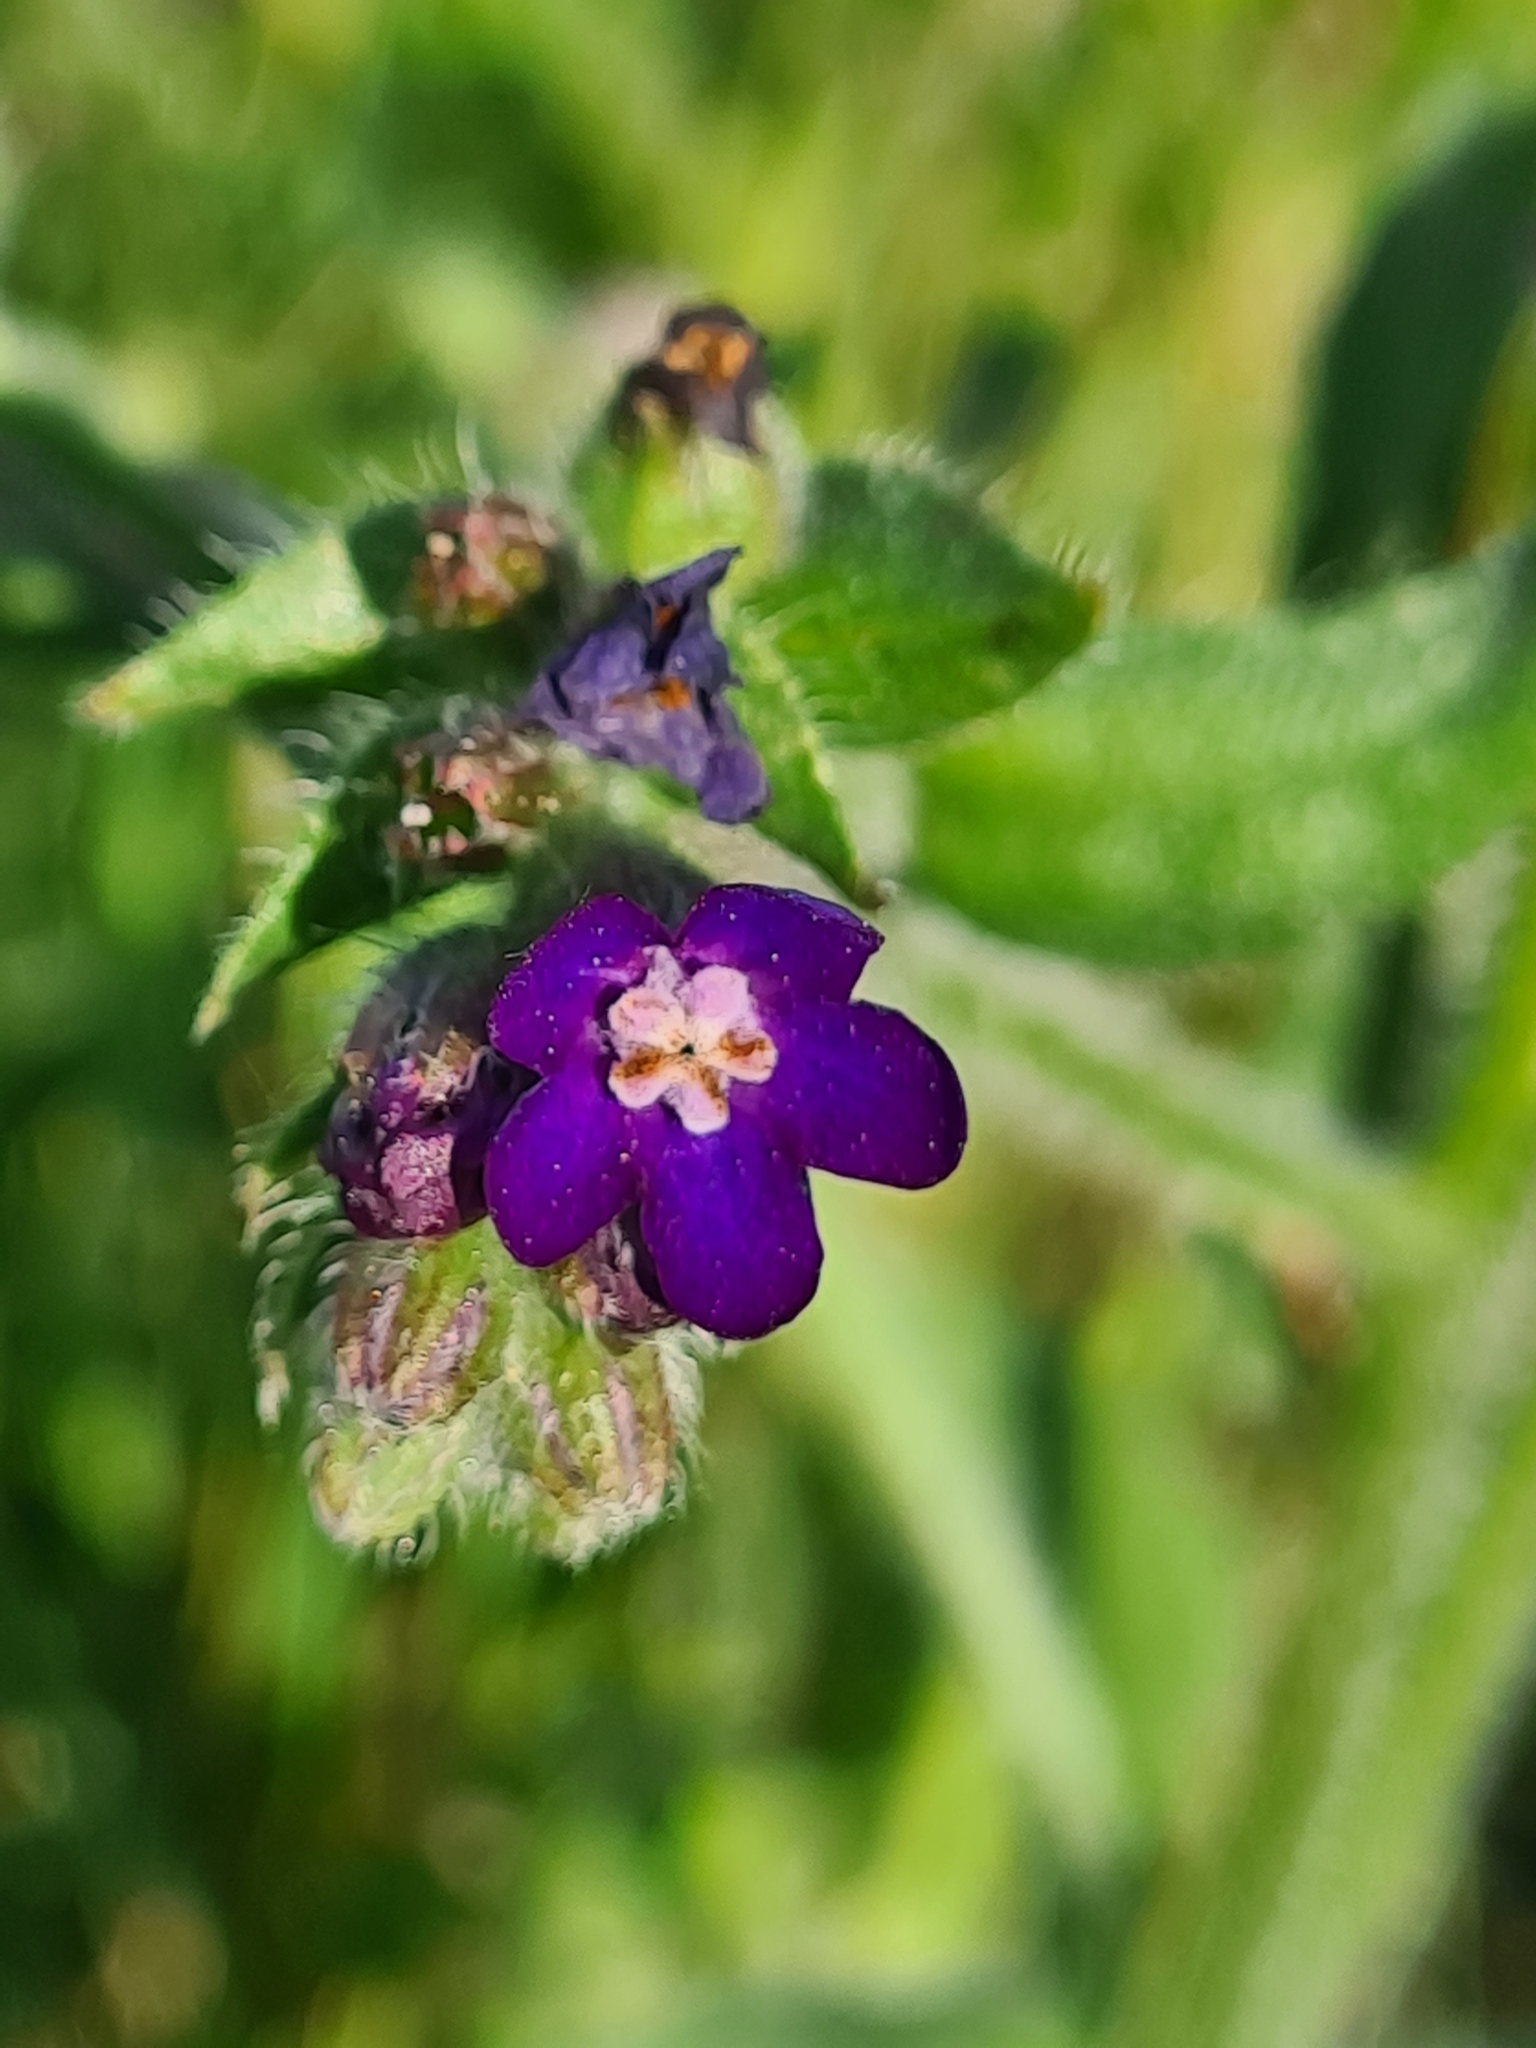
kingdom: Plantae
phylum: Tracheophyta
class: Magnoliopsida
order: Boraginales
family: Boraginaceae
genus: Anchusa
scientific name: Anchusa officinalis
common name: Alkanet
